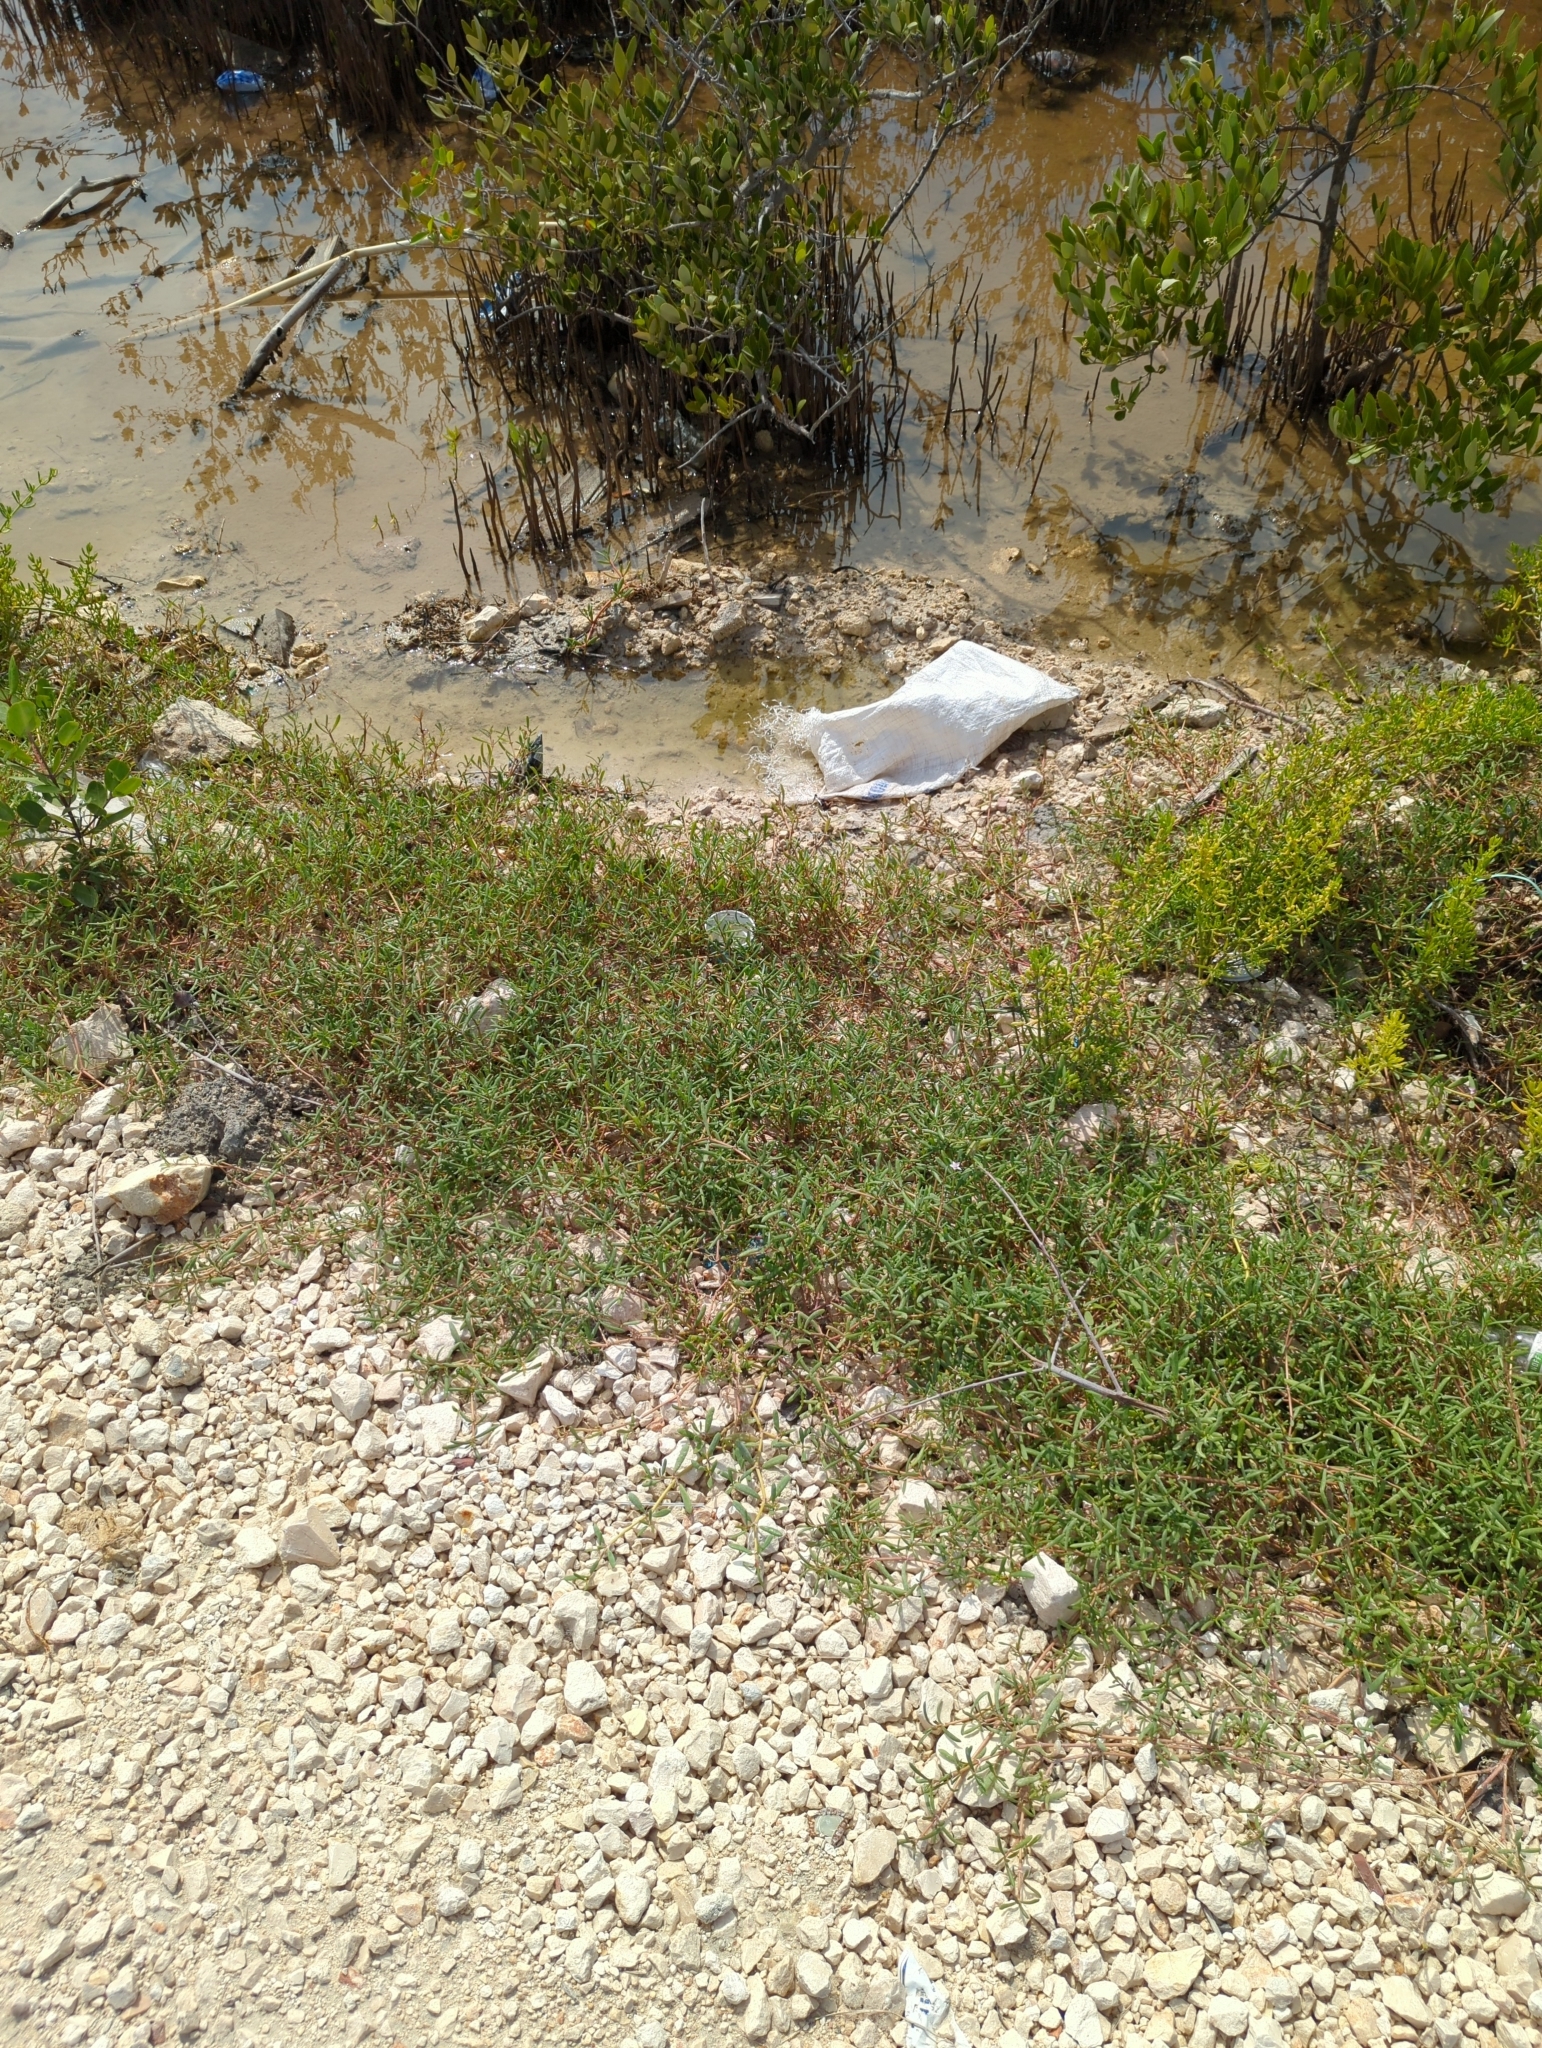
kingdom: Plantae
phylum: Tracheophyta
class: Magnoliopsida
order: Caryophyllales
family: Aizoaceae
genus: Sesuvium
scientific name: Sesuvium portulacastrum
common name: Sea-purslane
